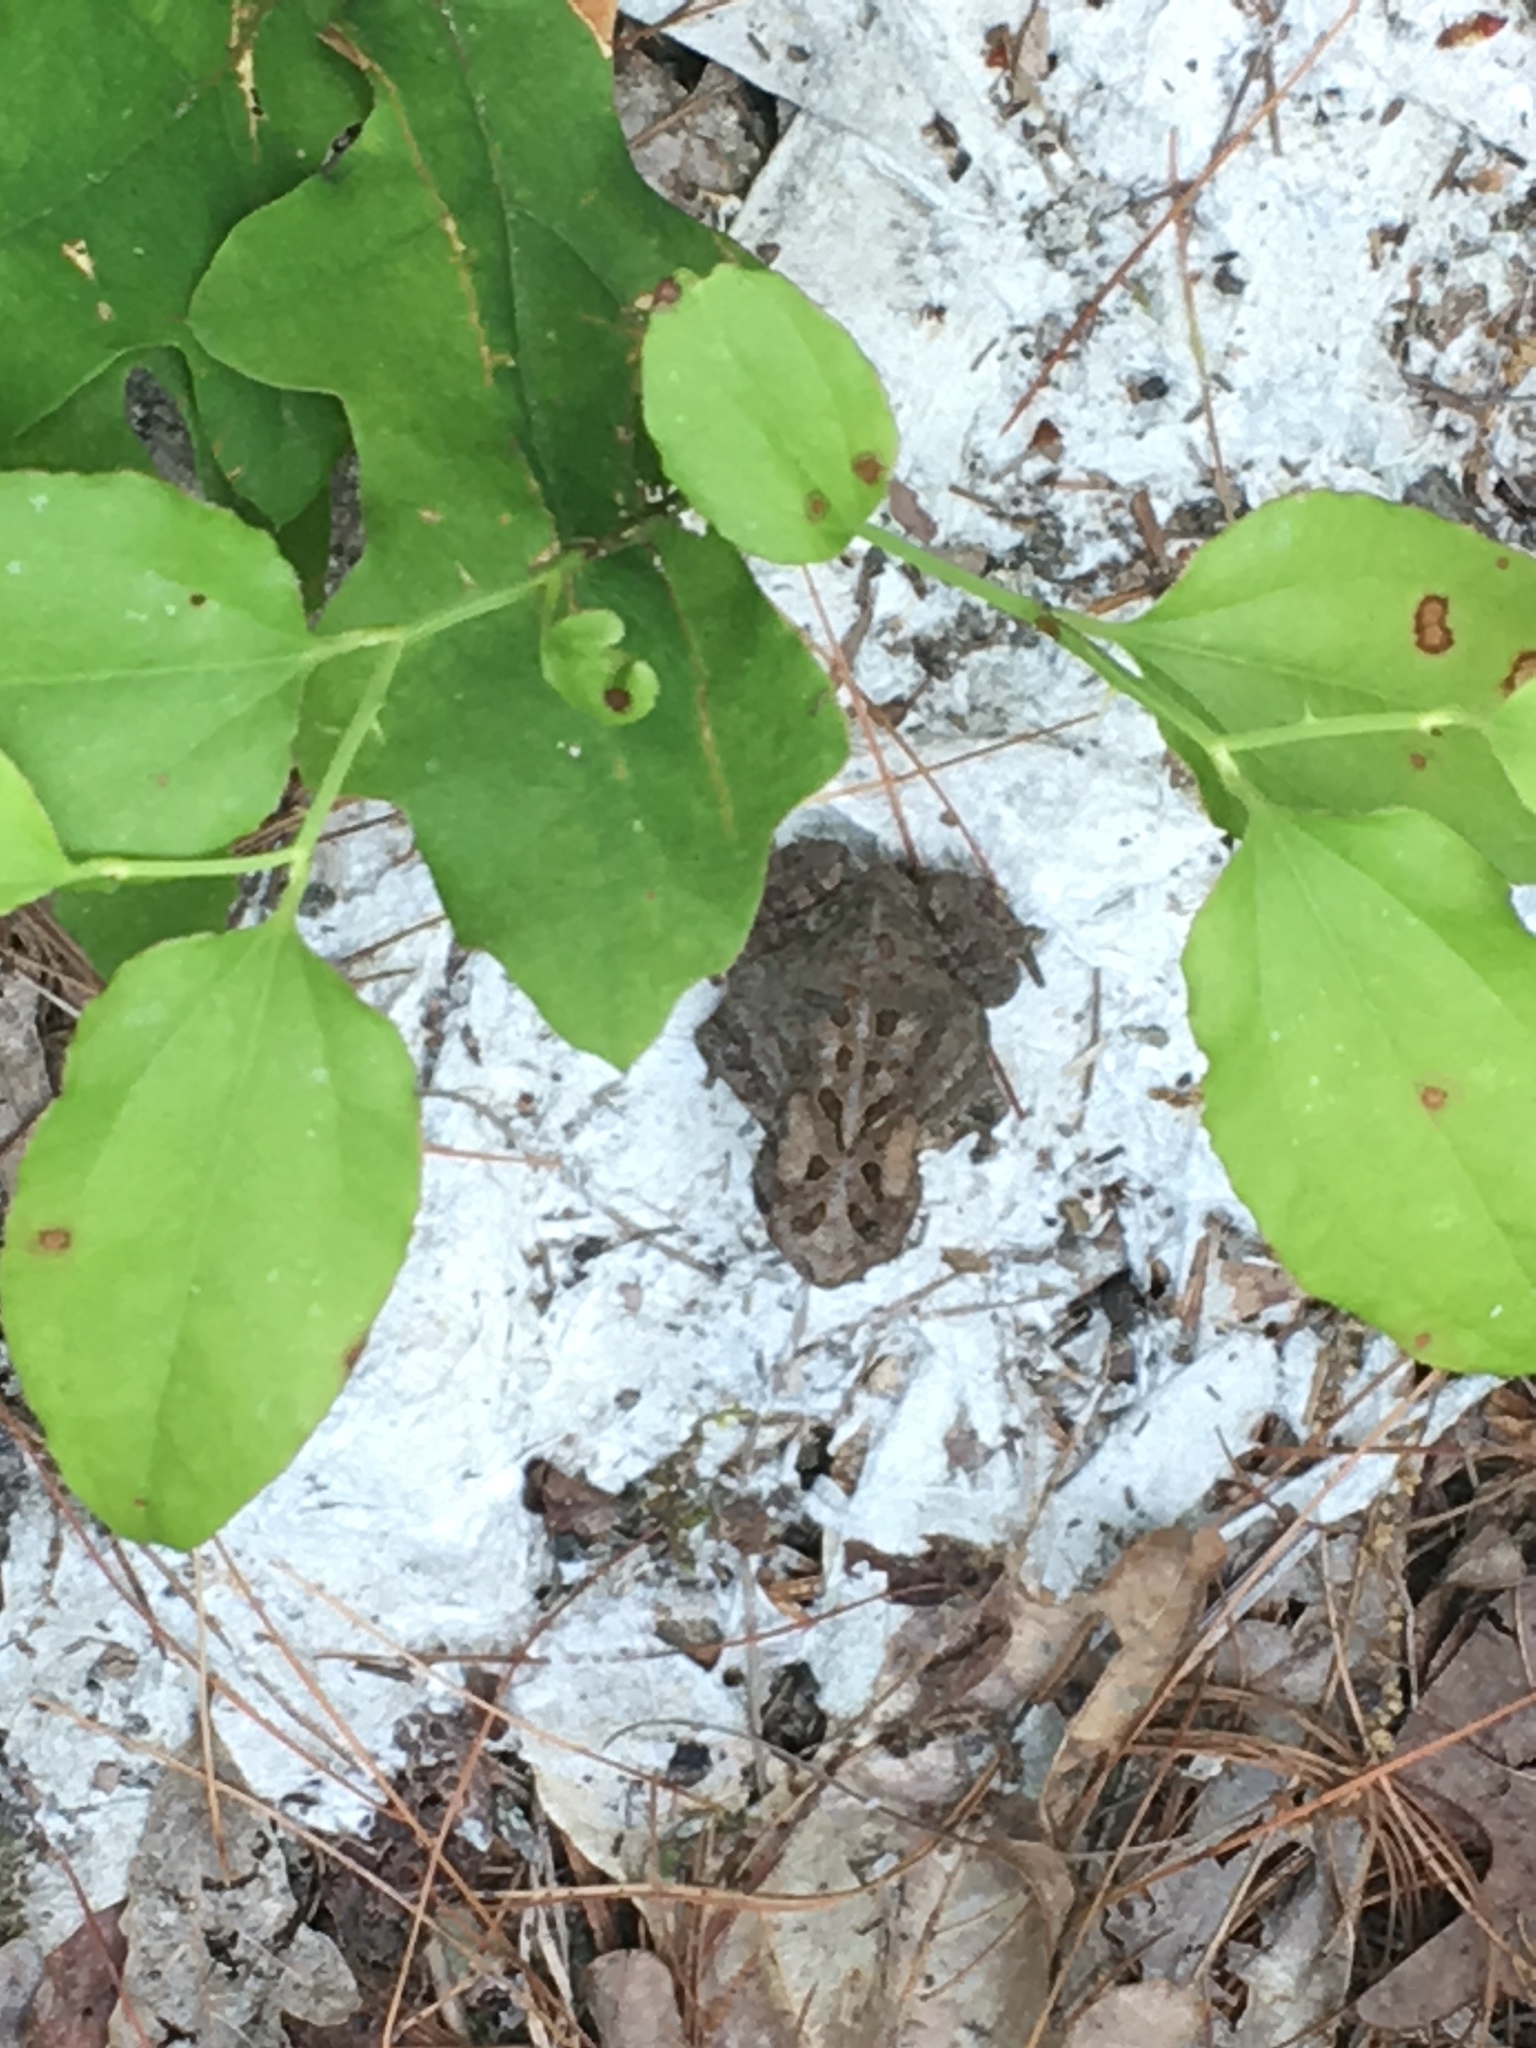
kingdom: Animalia
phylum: Chordata
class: Amphibia
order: Anura
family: Bufonidae
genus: Anaxyrus
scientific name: Anaxyrus americanus
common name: American toad
